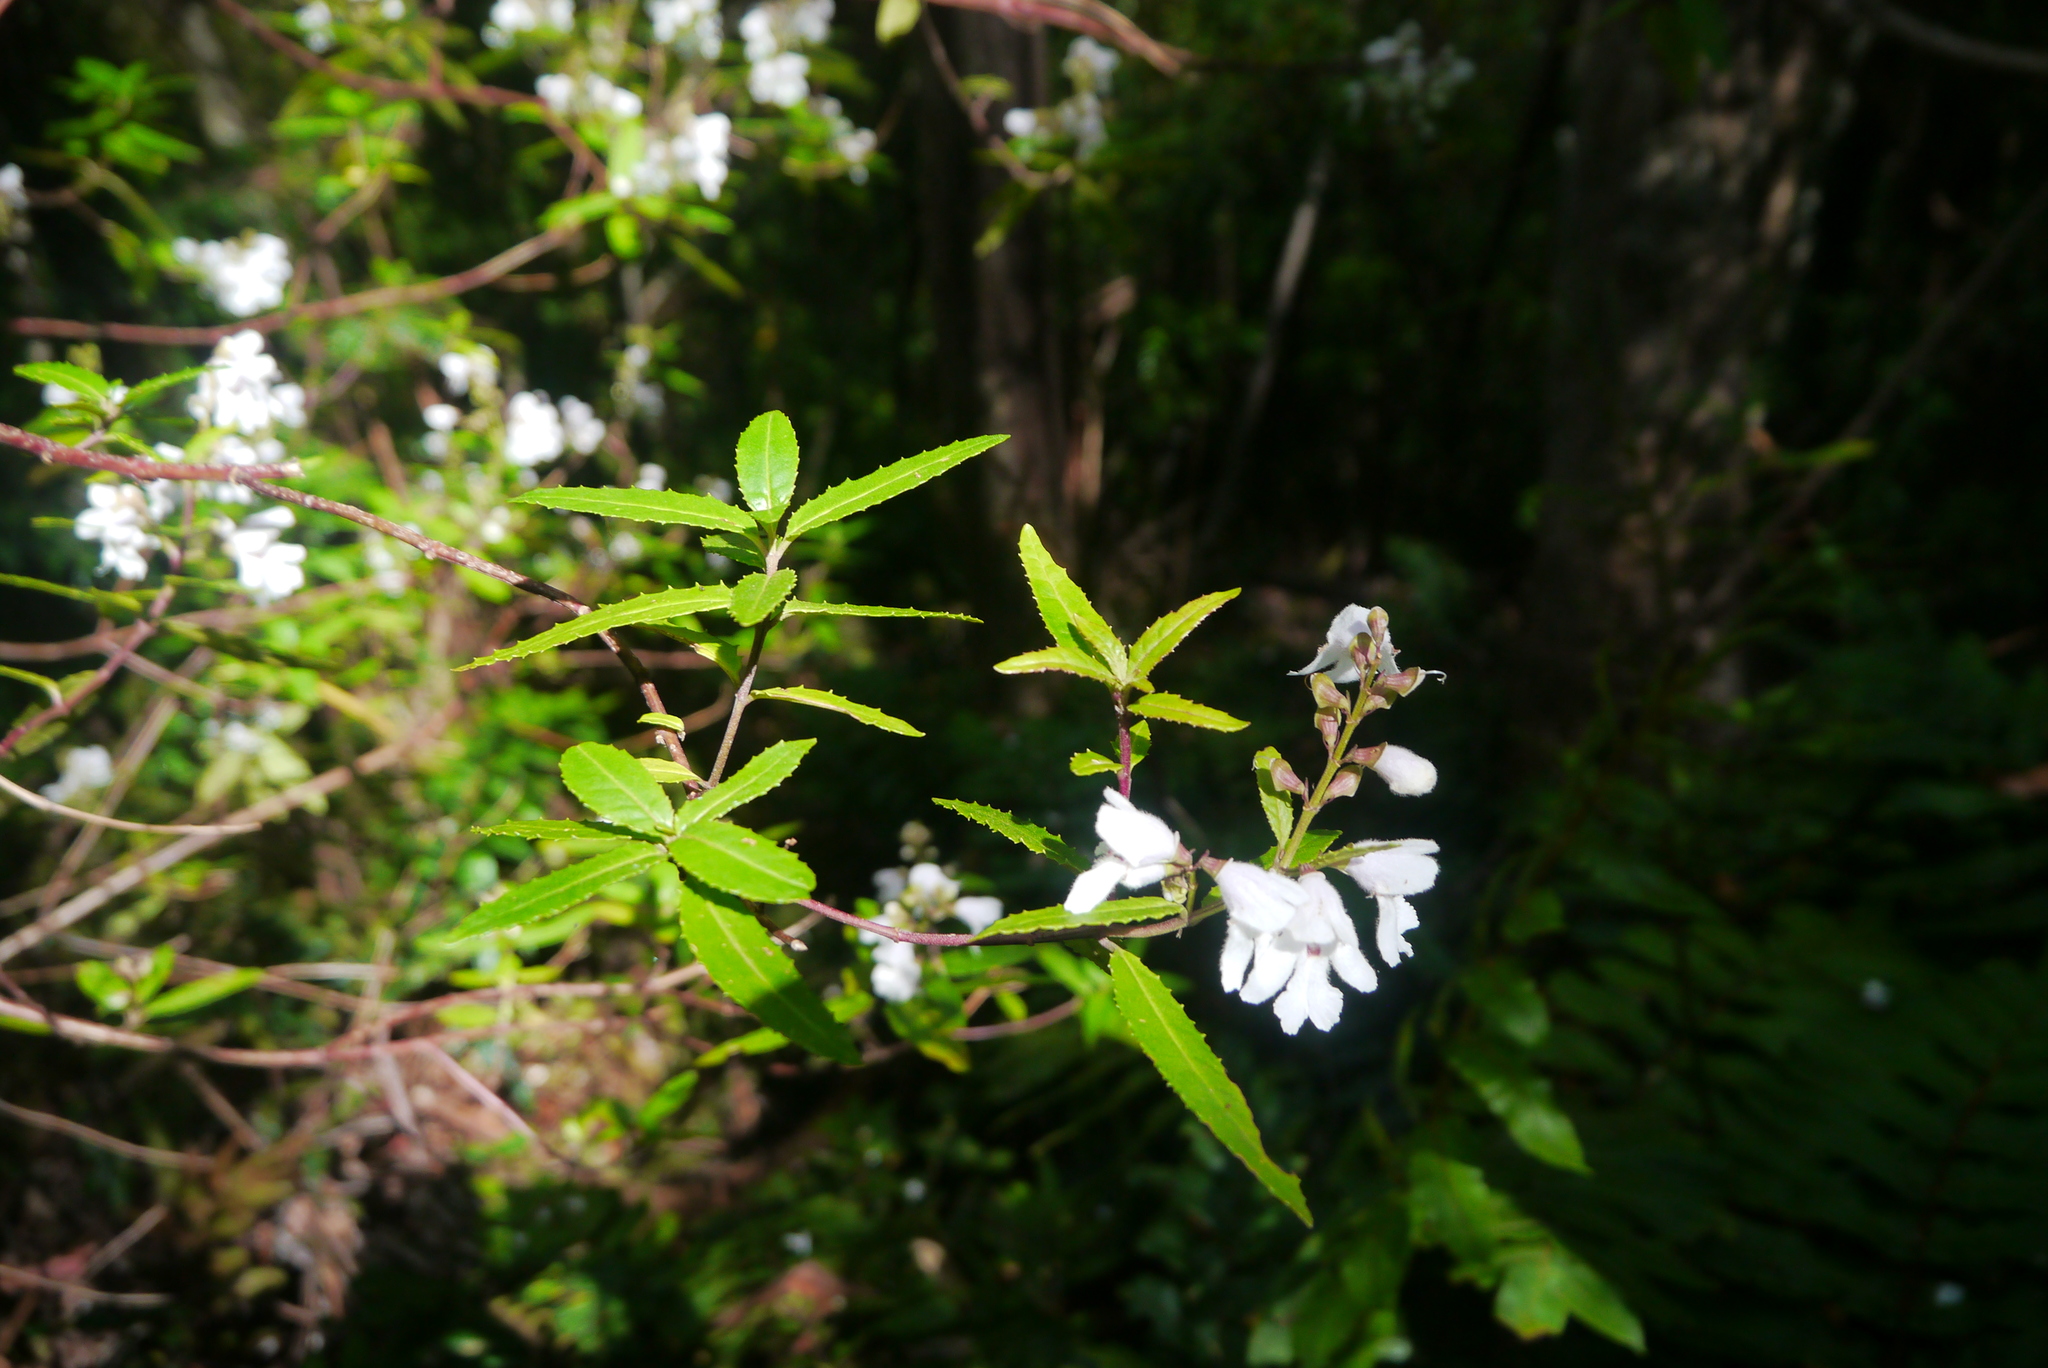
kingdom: Plantae
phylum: Tracheophyta
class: Magnoliopsida
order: Lamiales
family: Lamiaceae
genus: Prostanthera
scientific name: Prostanthera lasianthos
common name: Mountain-lilac
